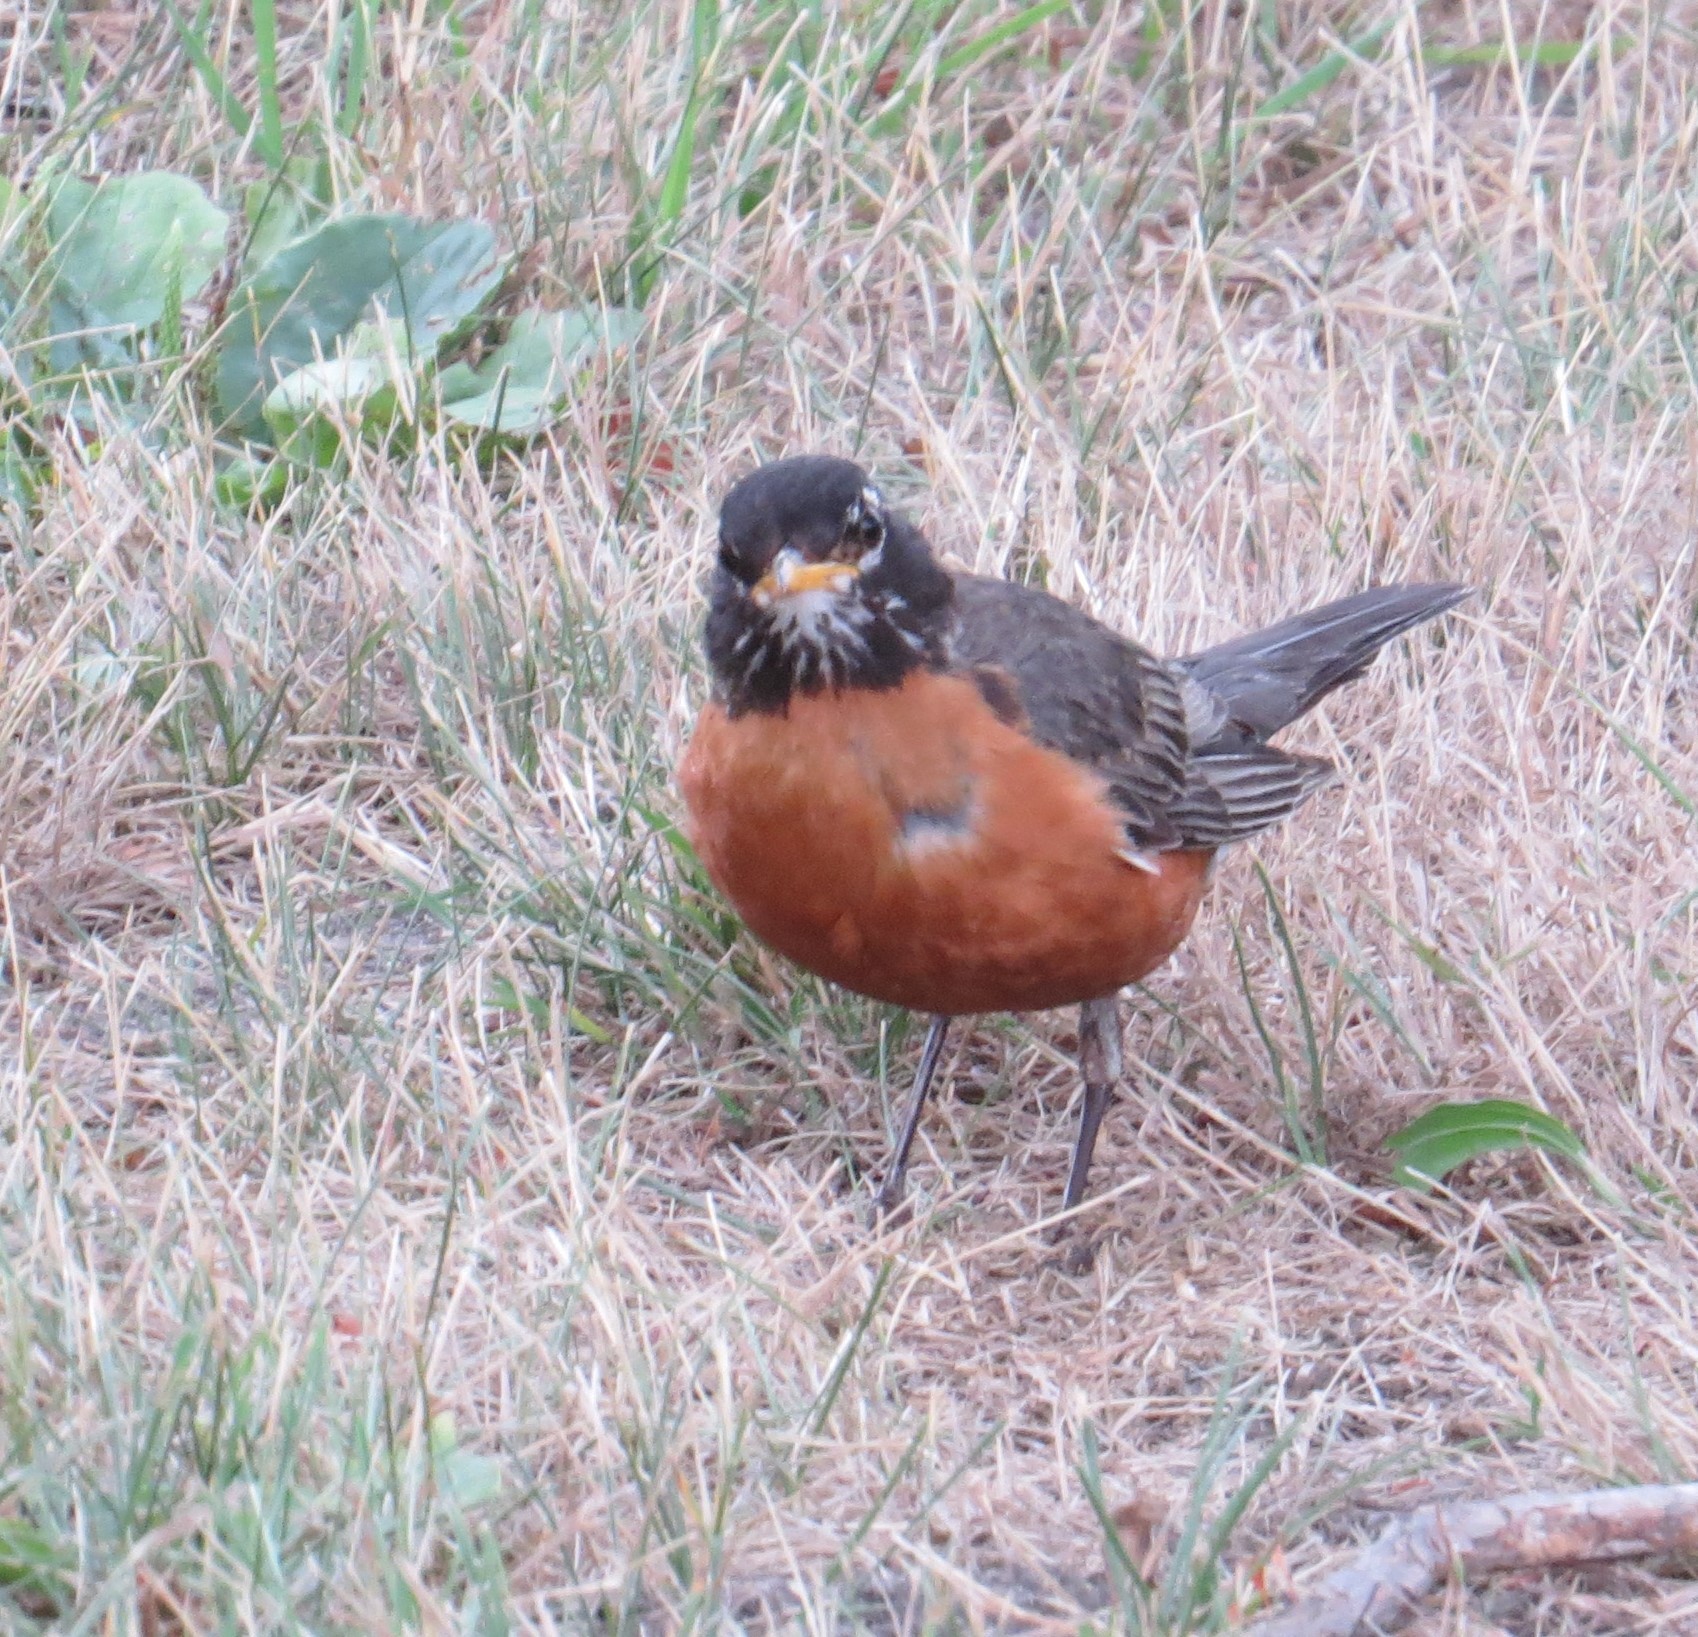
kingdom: Animalia
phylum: Chordata
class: Aves
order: Passeriformes
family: Turdidae
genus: Turdus
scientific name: Turdus migratorius
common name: American robin
